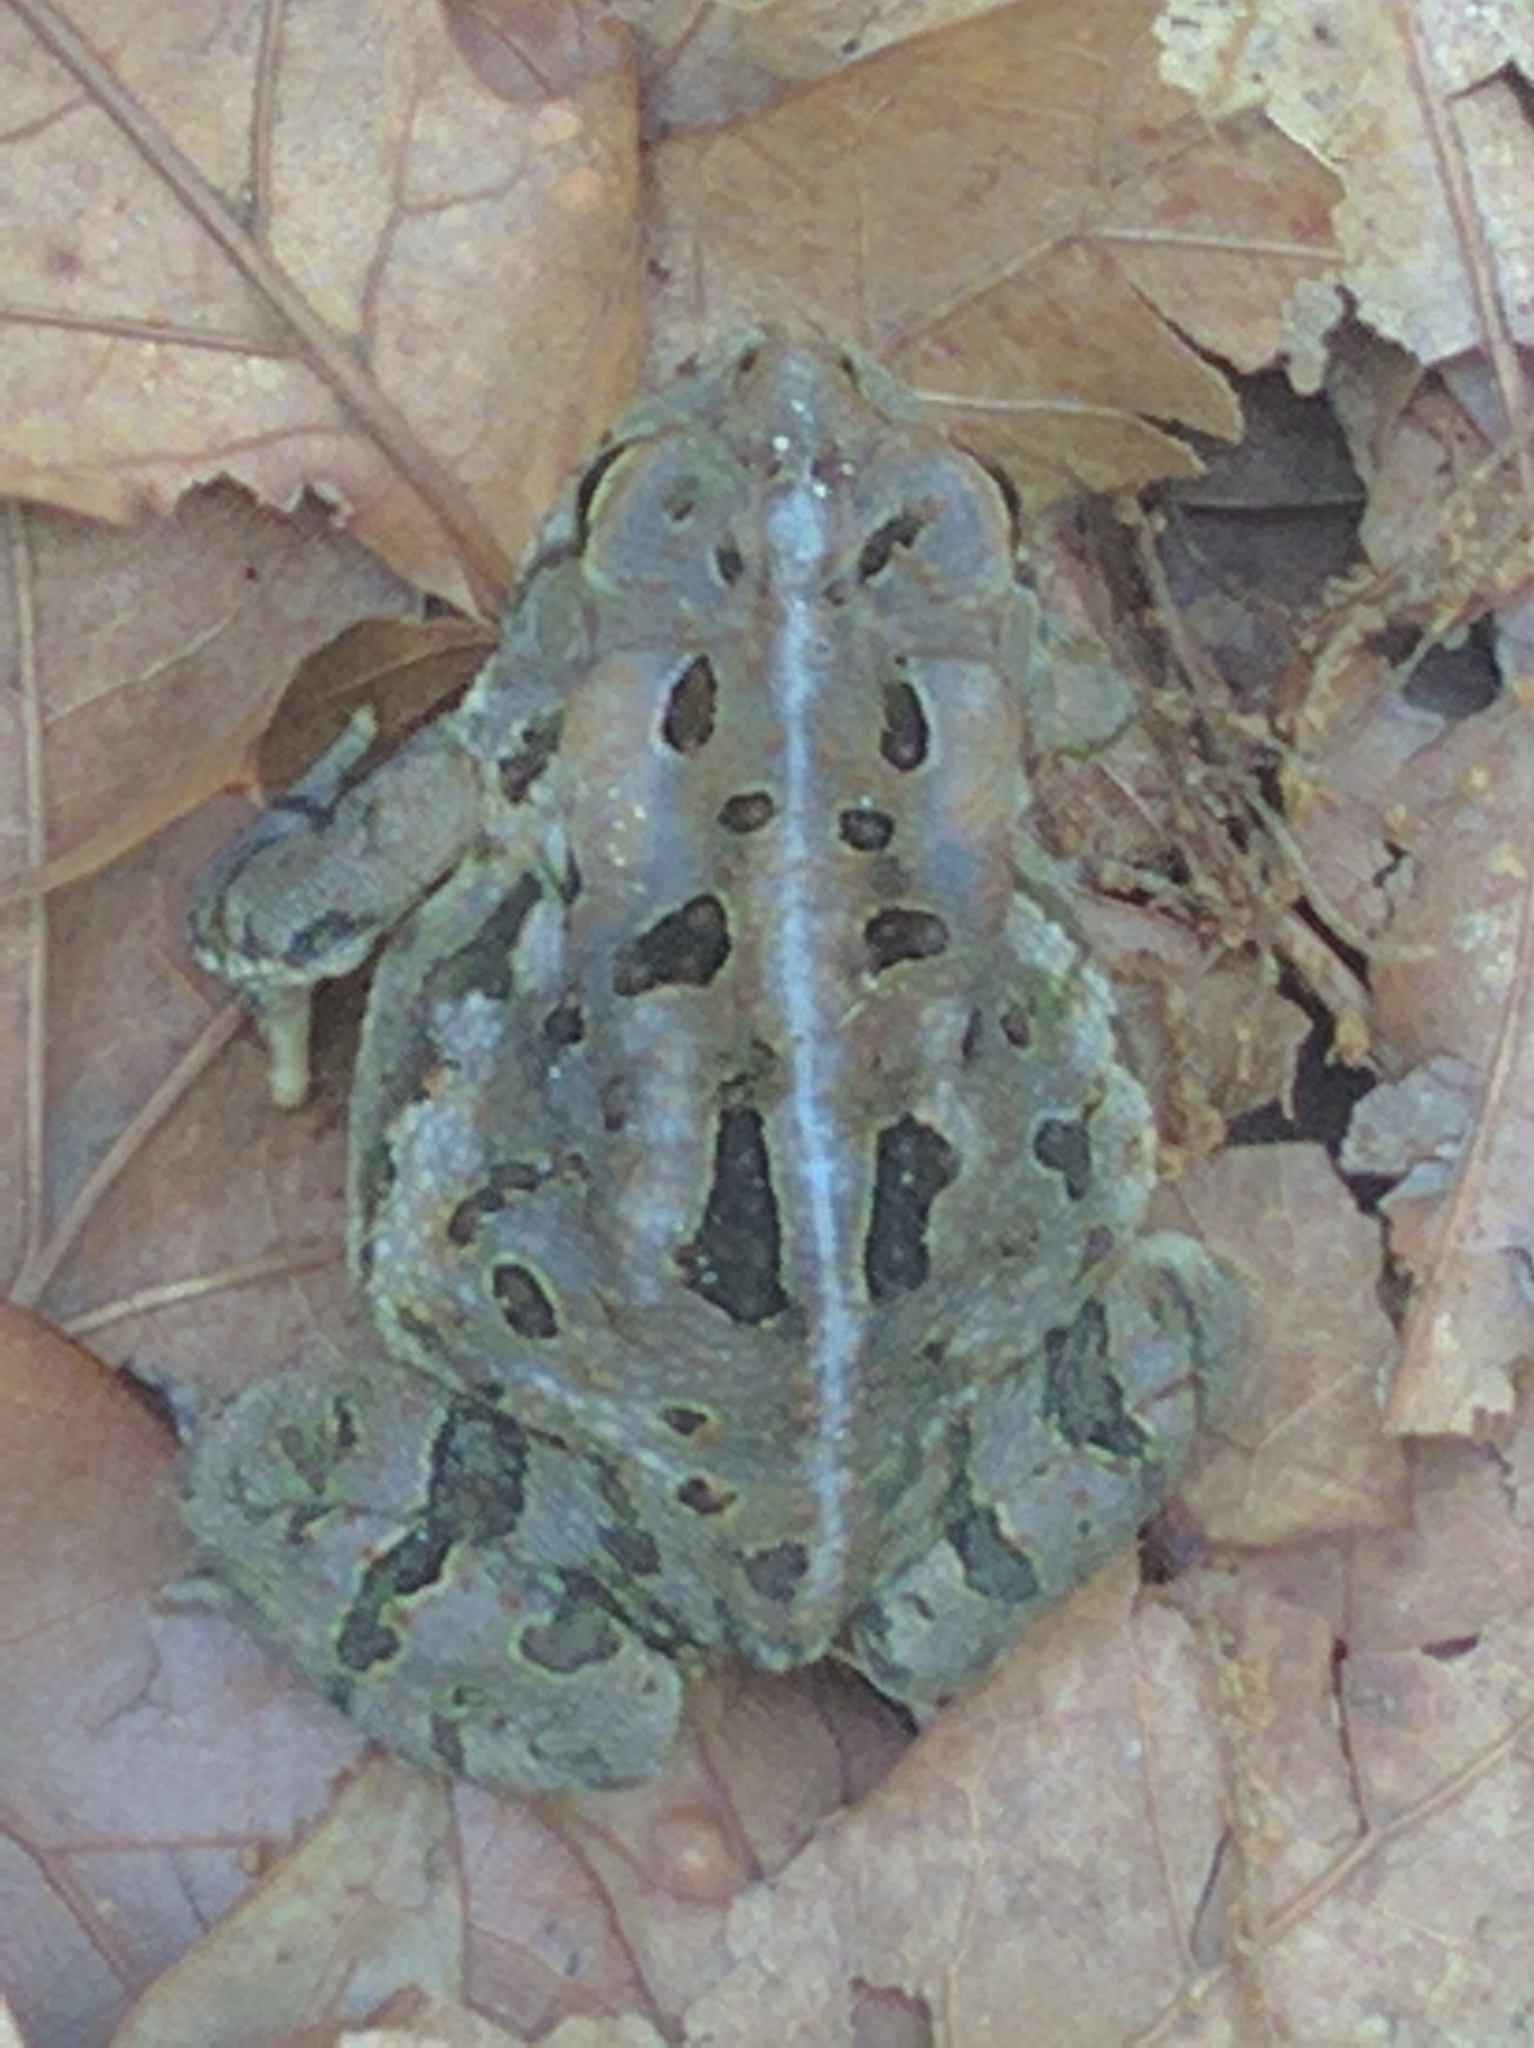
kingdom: Animalia
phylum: Chordata
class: Amphibia
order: Anura
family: Bufonidae
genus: Anaxyrus
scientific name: Anaxyrus fowleri
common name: Fowler's toad
